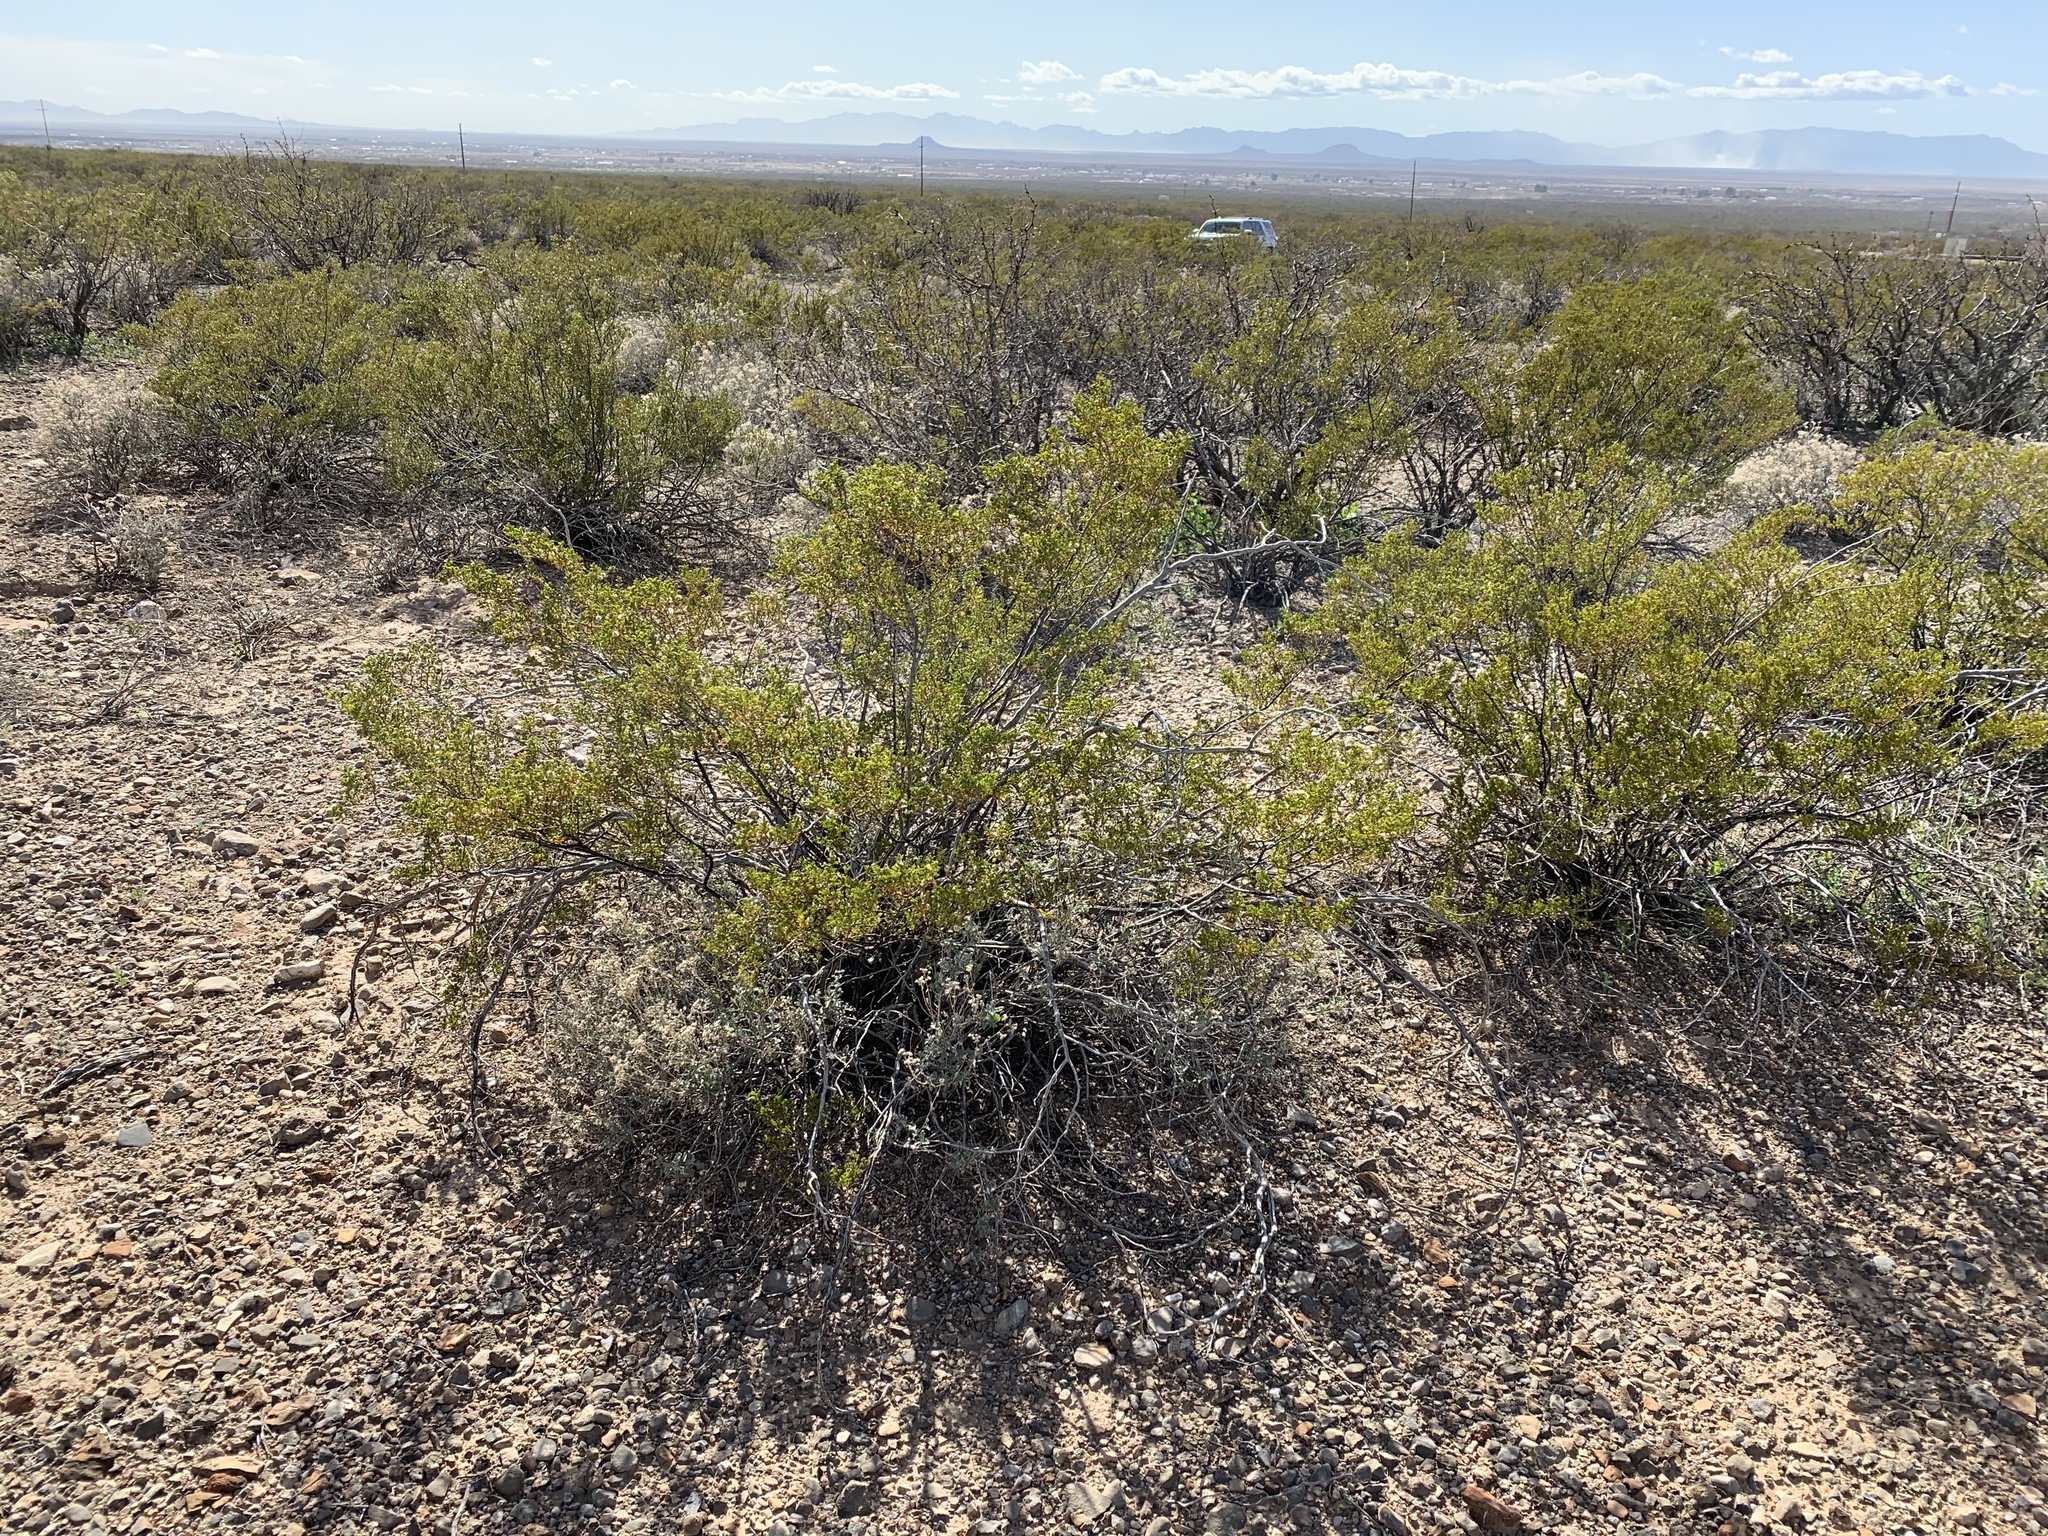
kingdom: Plantae
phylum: Tracheophyta
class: Magnoliopsida
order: Zygophyllales
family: Zygophyllaceae
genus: Larrea
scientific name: Larrea tridentata
